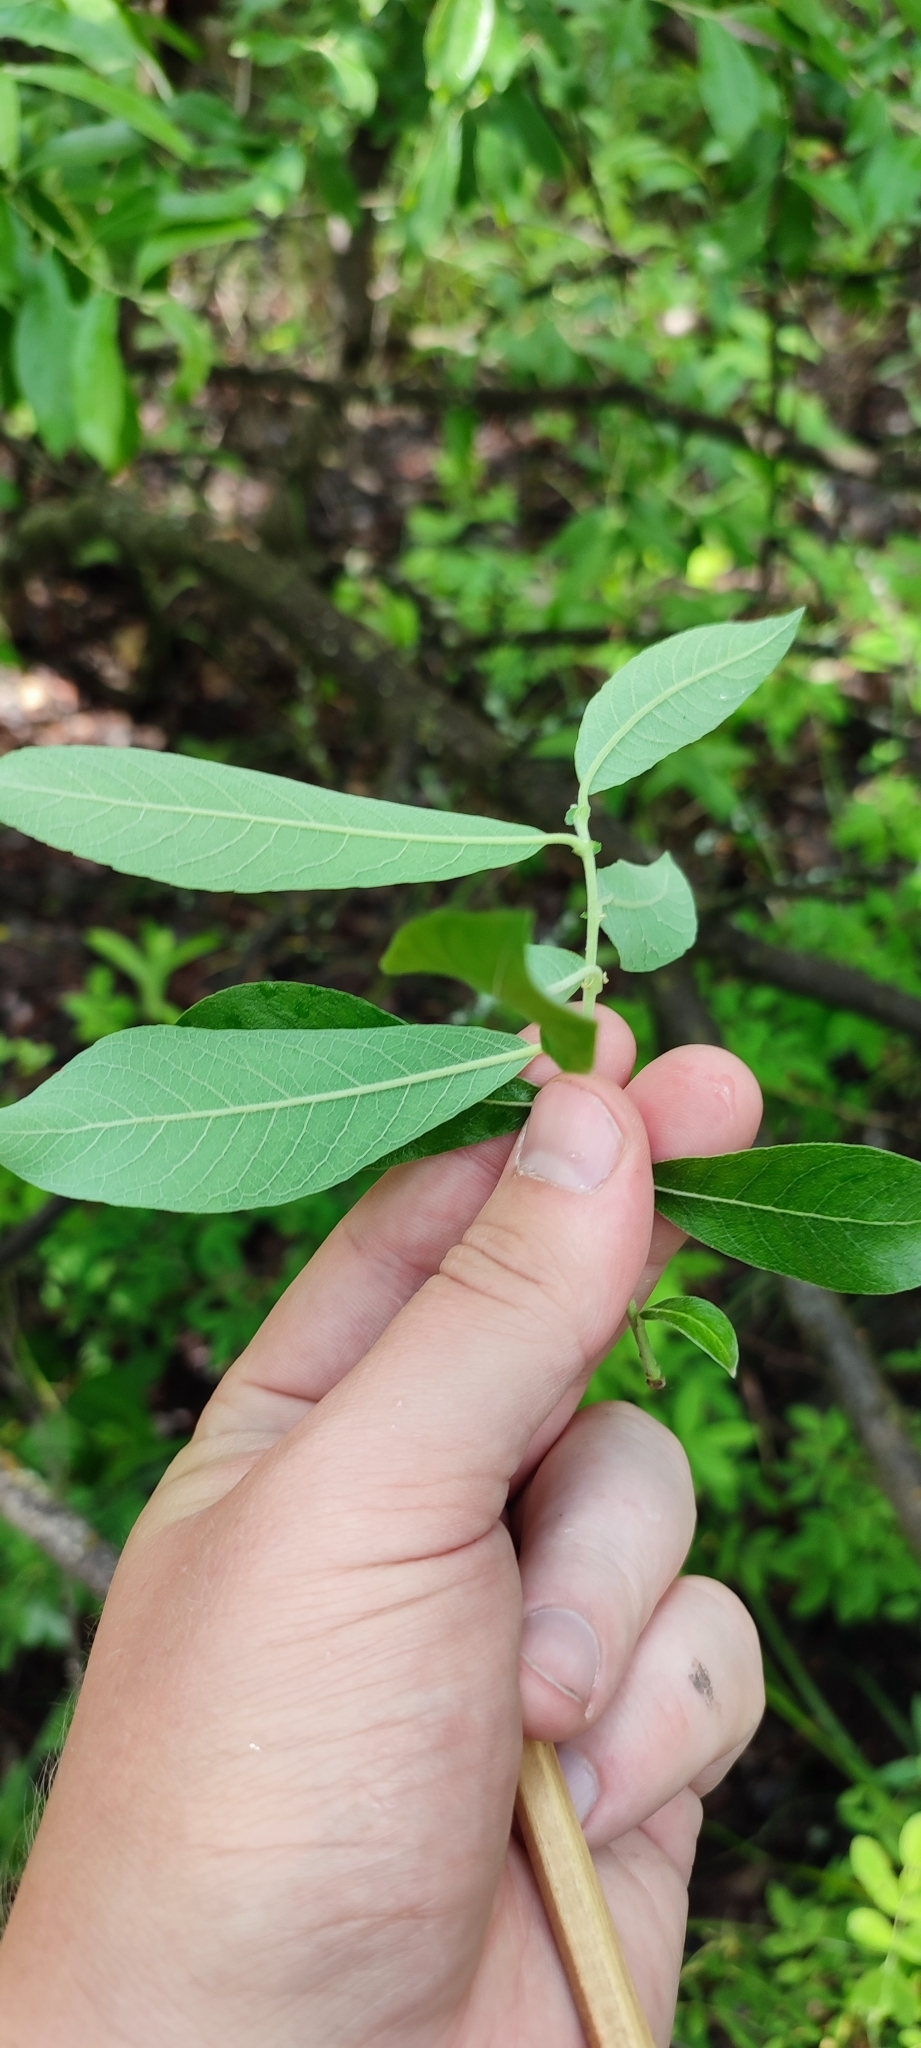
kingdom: Plantae
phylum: Tracheophyta
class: Magnoliopsida
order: Malpighiales
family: Salicaceae
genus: Salix
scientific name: Salix cinerea
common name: Common sallow
